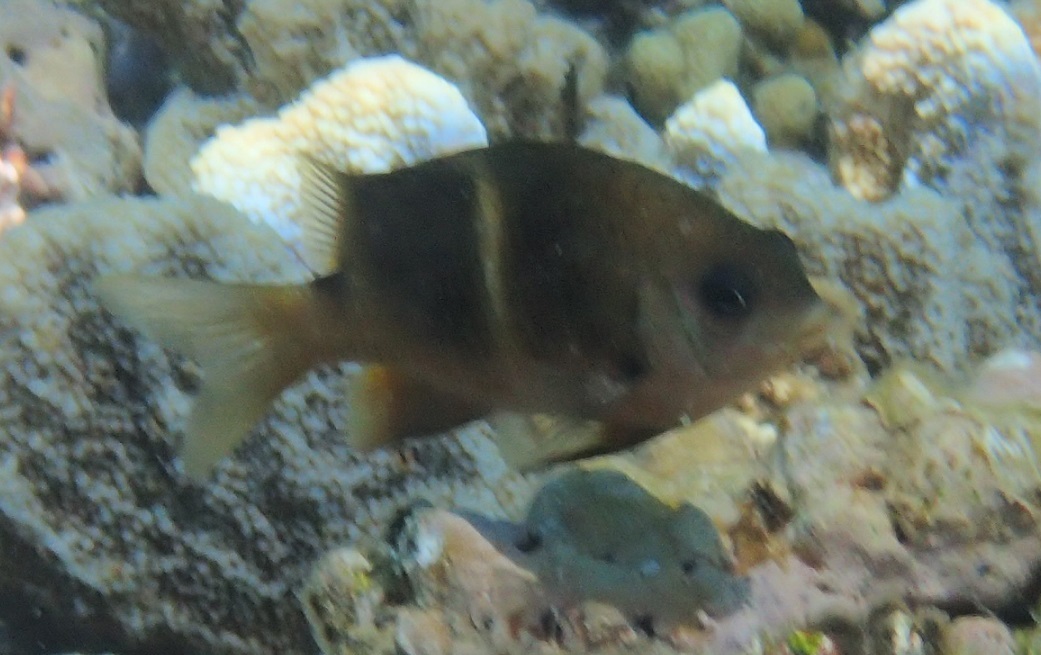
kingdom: Animalia
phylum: Chordata
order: Perciformes
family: Pomacentridae
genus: Plectroglyphidodon
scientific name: Plectroglyphidodon leucozonus
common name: White-band damsel
